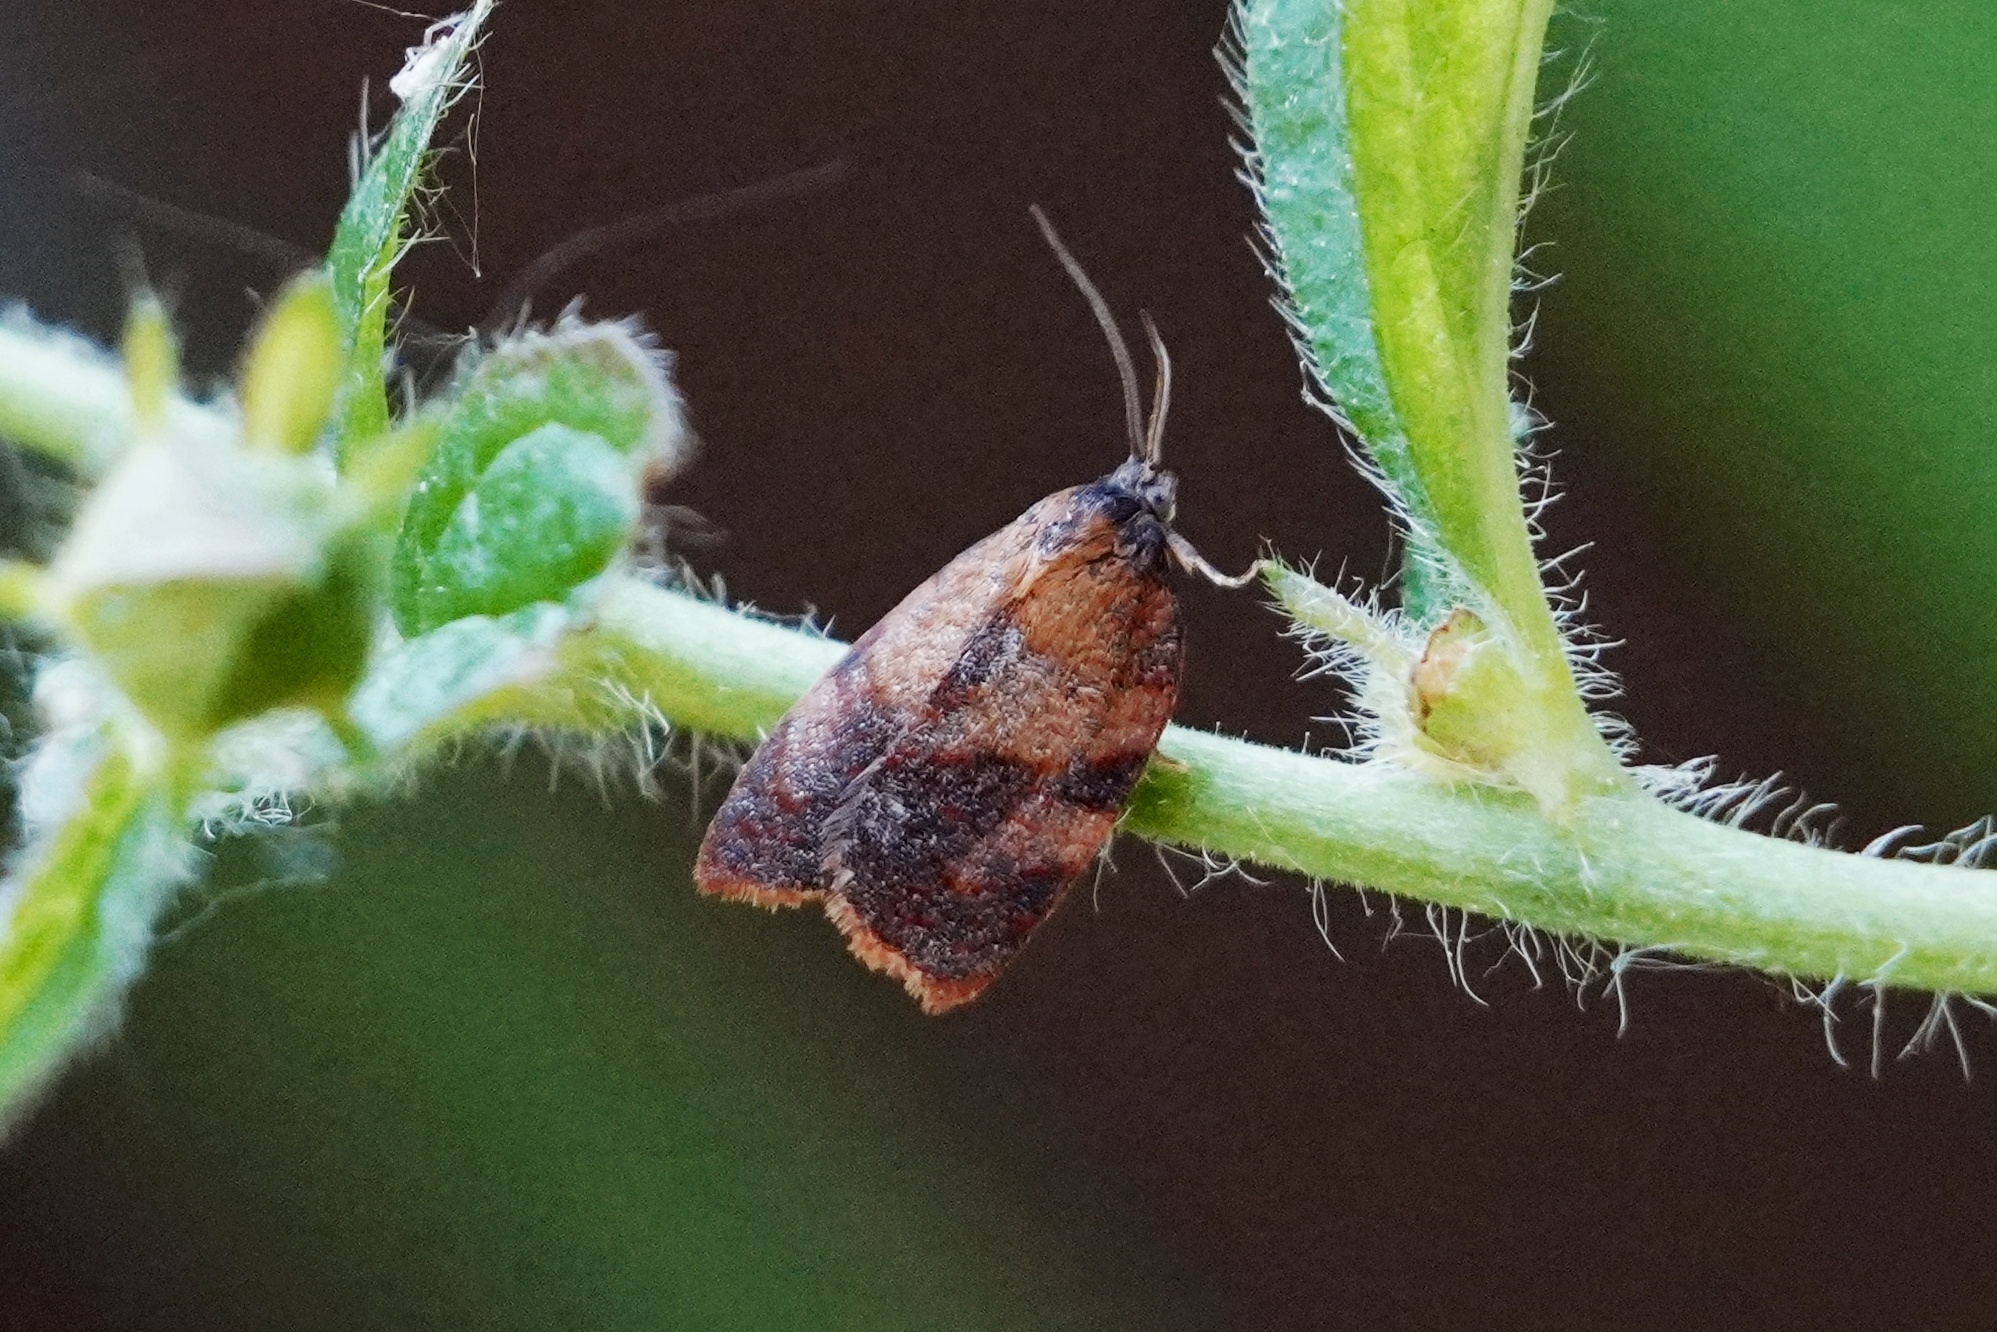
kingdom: Animalia
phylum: Arthropoda
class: Insecta
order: Lepidoptera
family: Tortricidae
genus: Cacoecimorpha
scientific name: Cacoecimorpha pronubana
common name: Carnation tortrix
